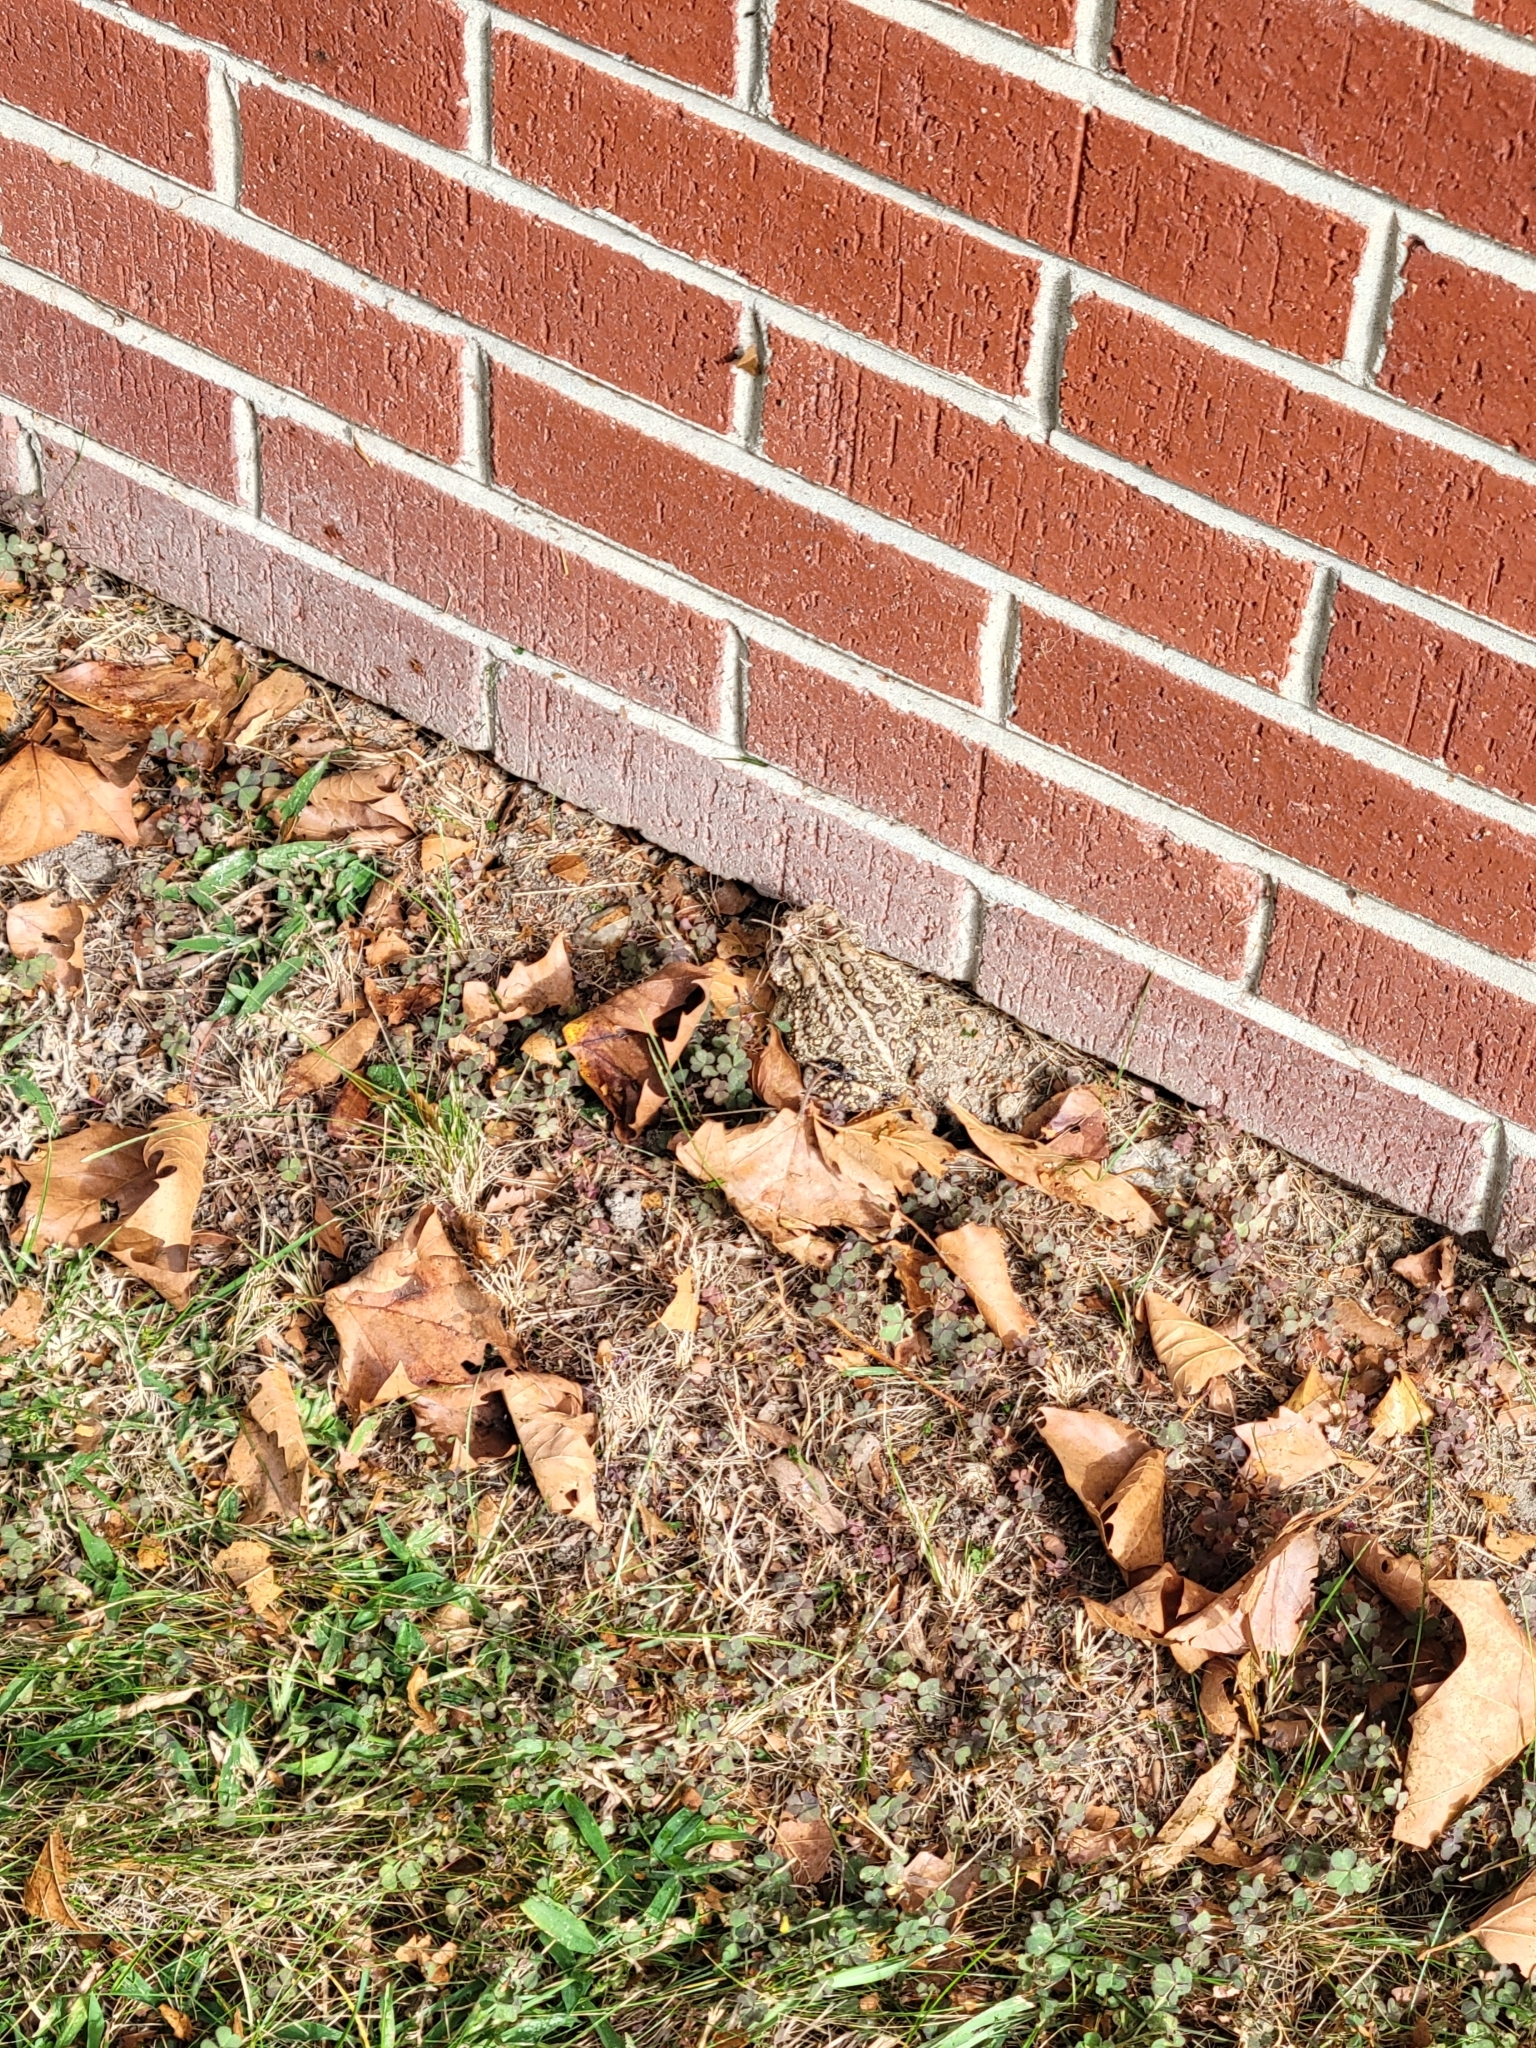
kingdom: Animalia
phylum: Chordata
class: Amphibia
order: Anura
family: Bufonidae
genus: Anaxyrus
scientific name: Anaxyrus terrestris
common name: Southern toad
